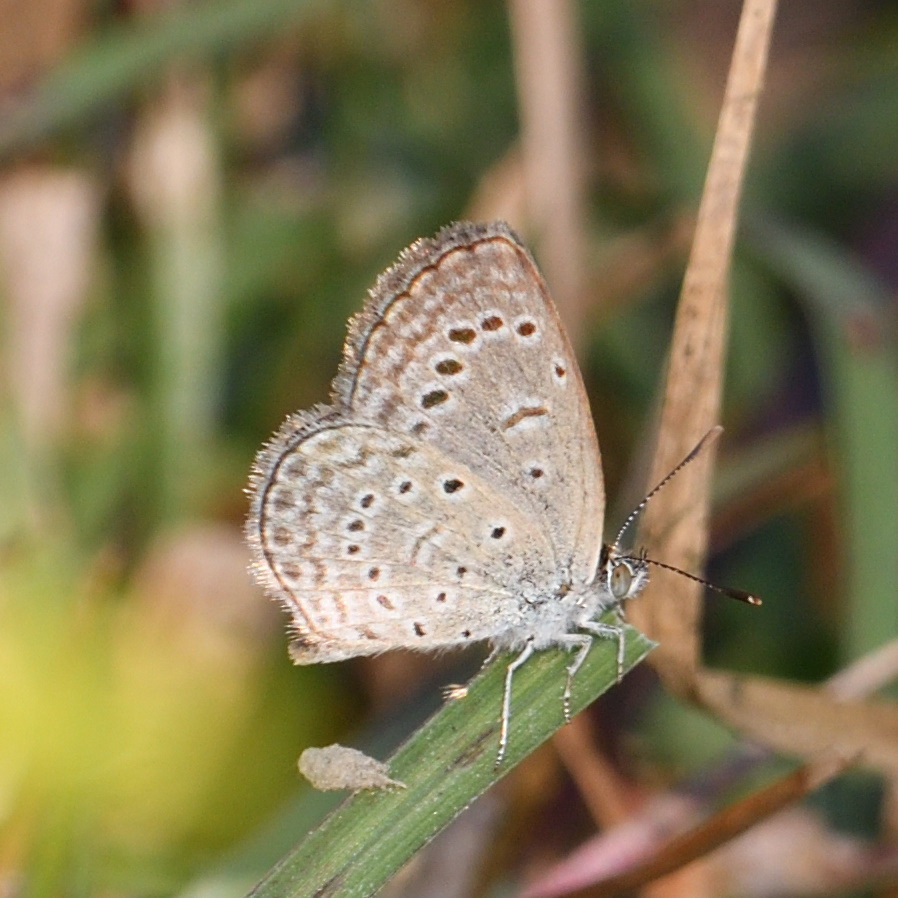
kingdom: Animalia
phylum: Arthropoda
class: Insecta
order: Lepidoptera
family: Lycaenidae
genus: Zizeeria
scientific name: Zizeeria karsandra
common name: Dark grass blue
